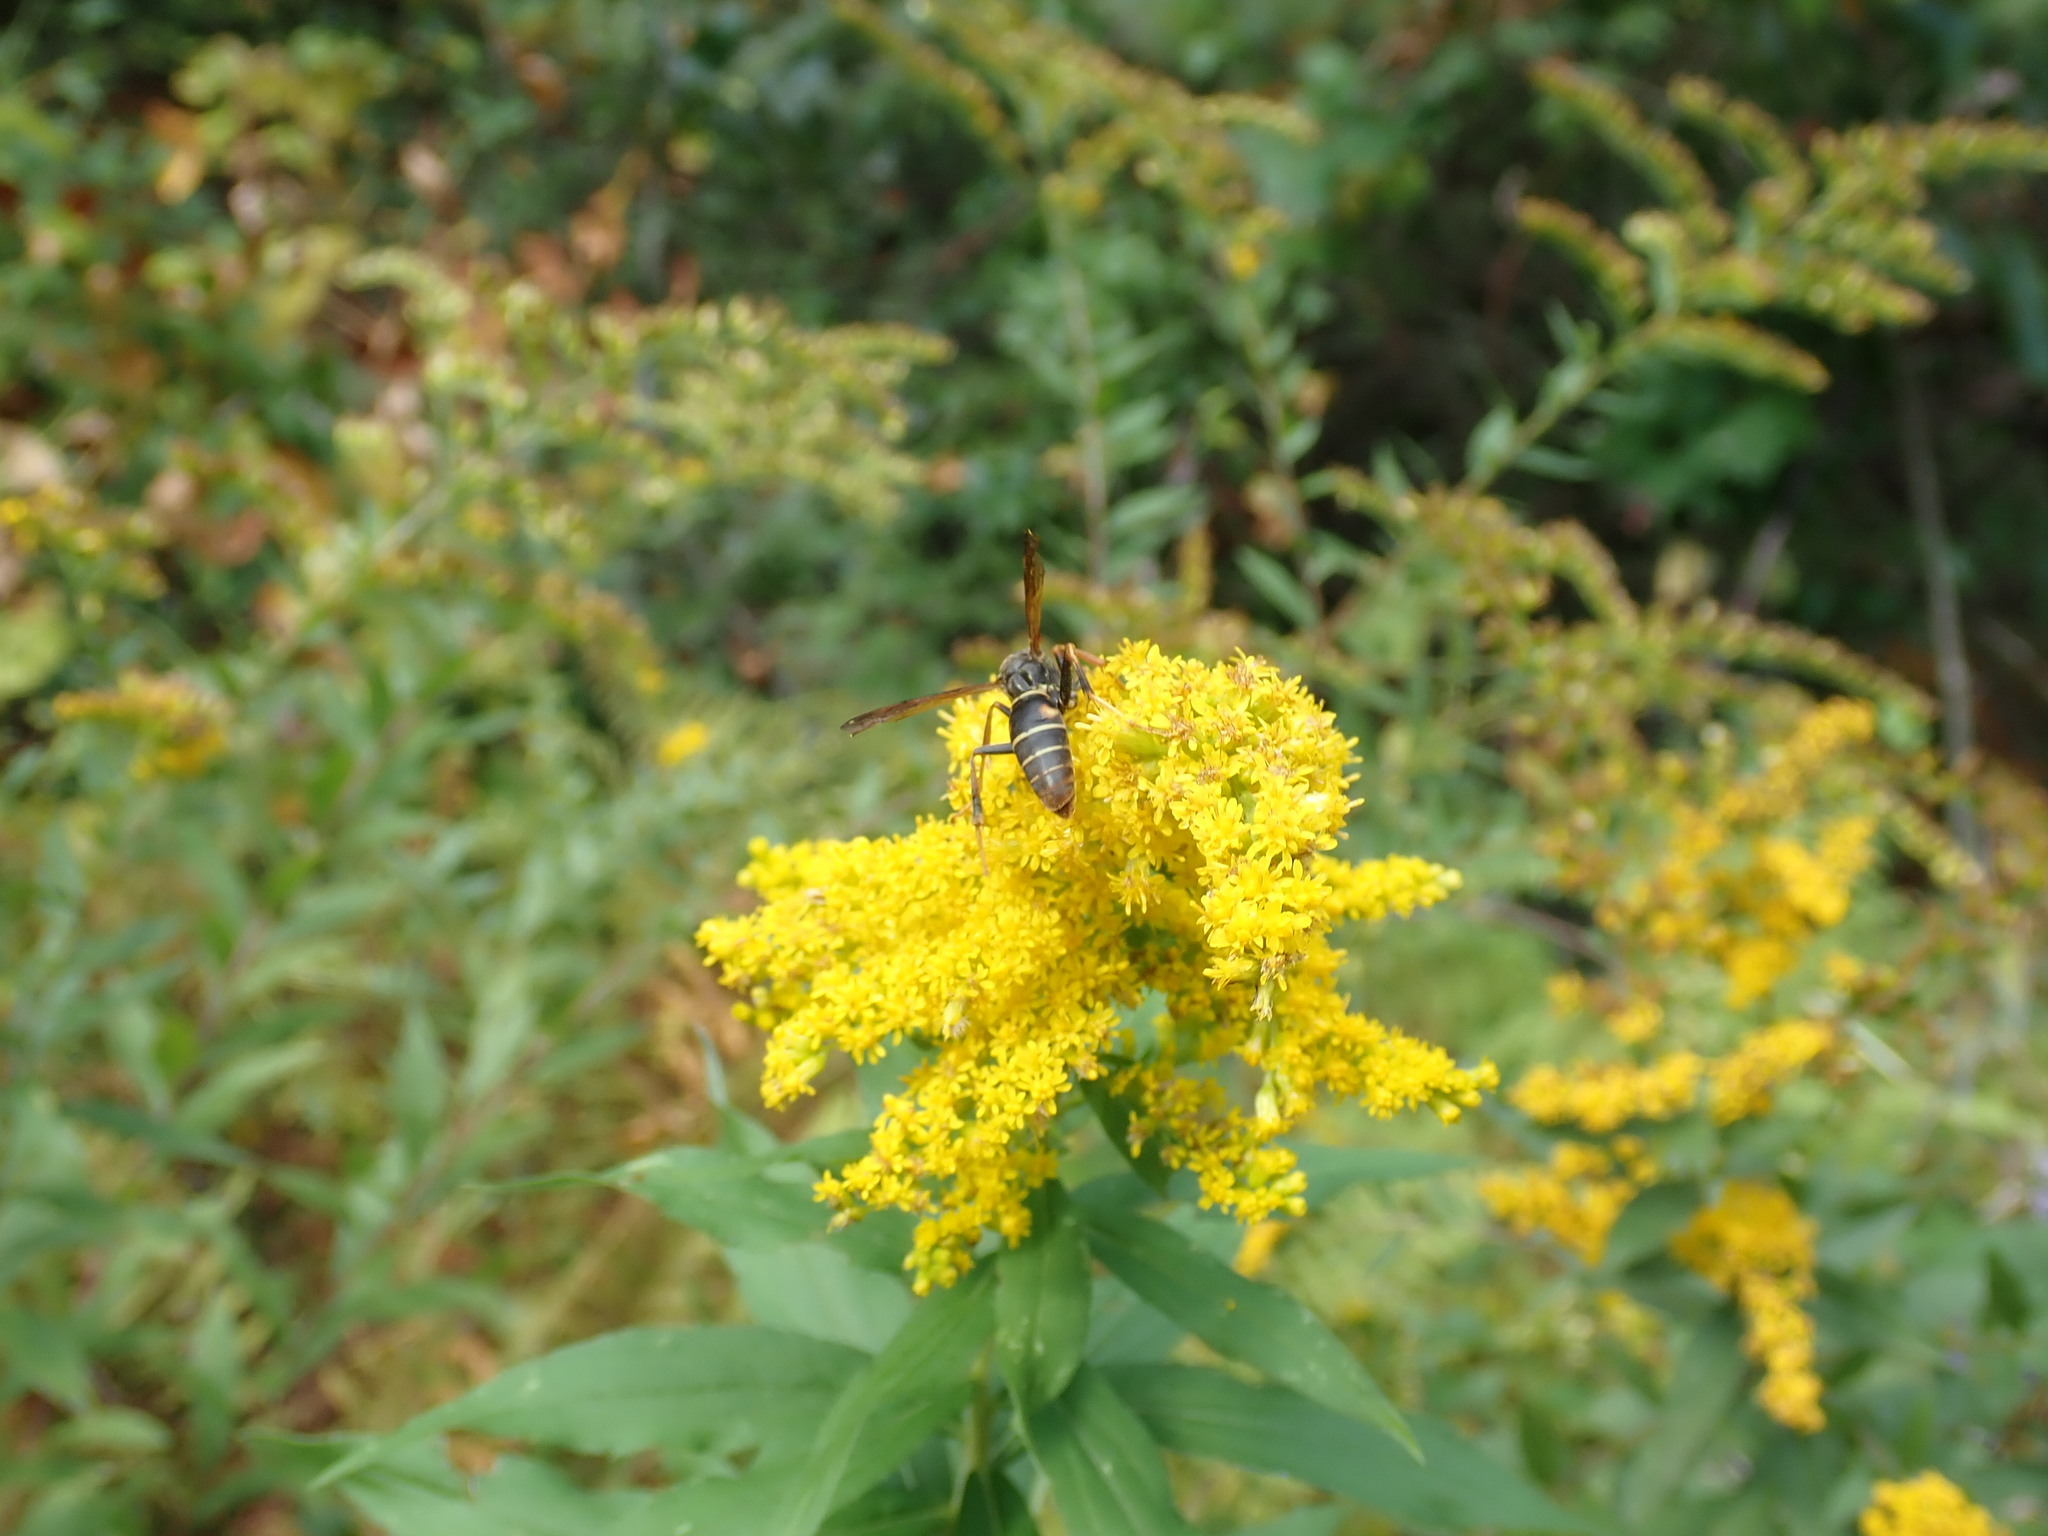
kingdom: Animalia
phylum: Arthropoda
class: Insecta
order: Hymenoptera
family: Eumenidae
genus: Polistes
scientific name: Polistes fuscatus
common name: Dark paper wasp
